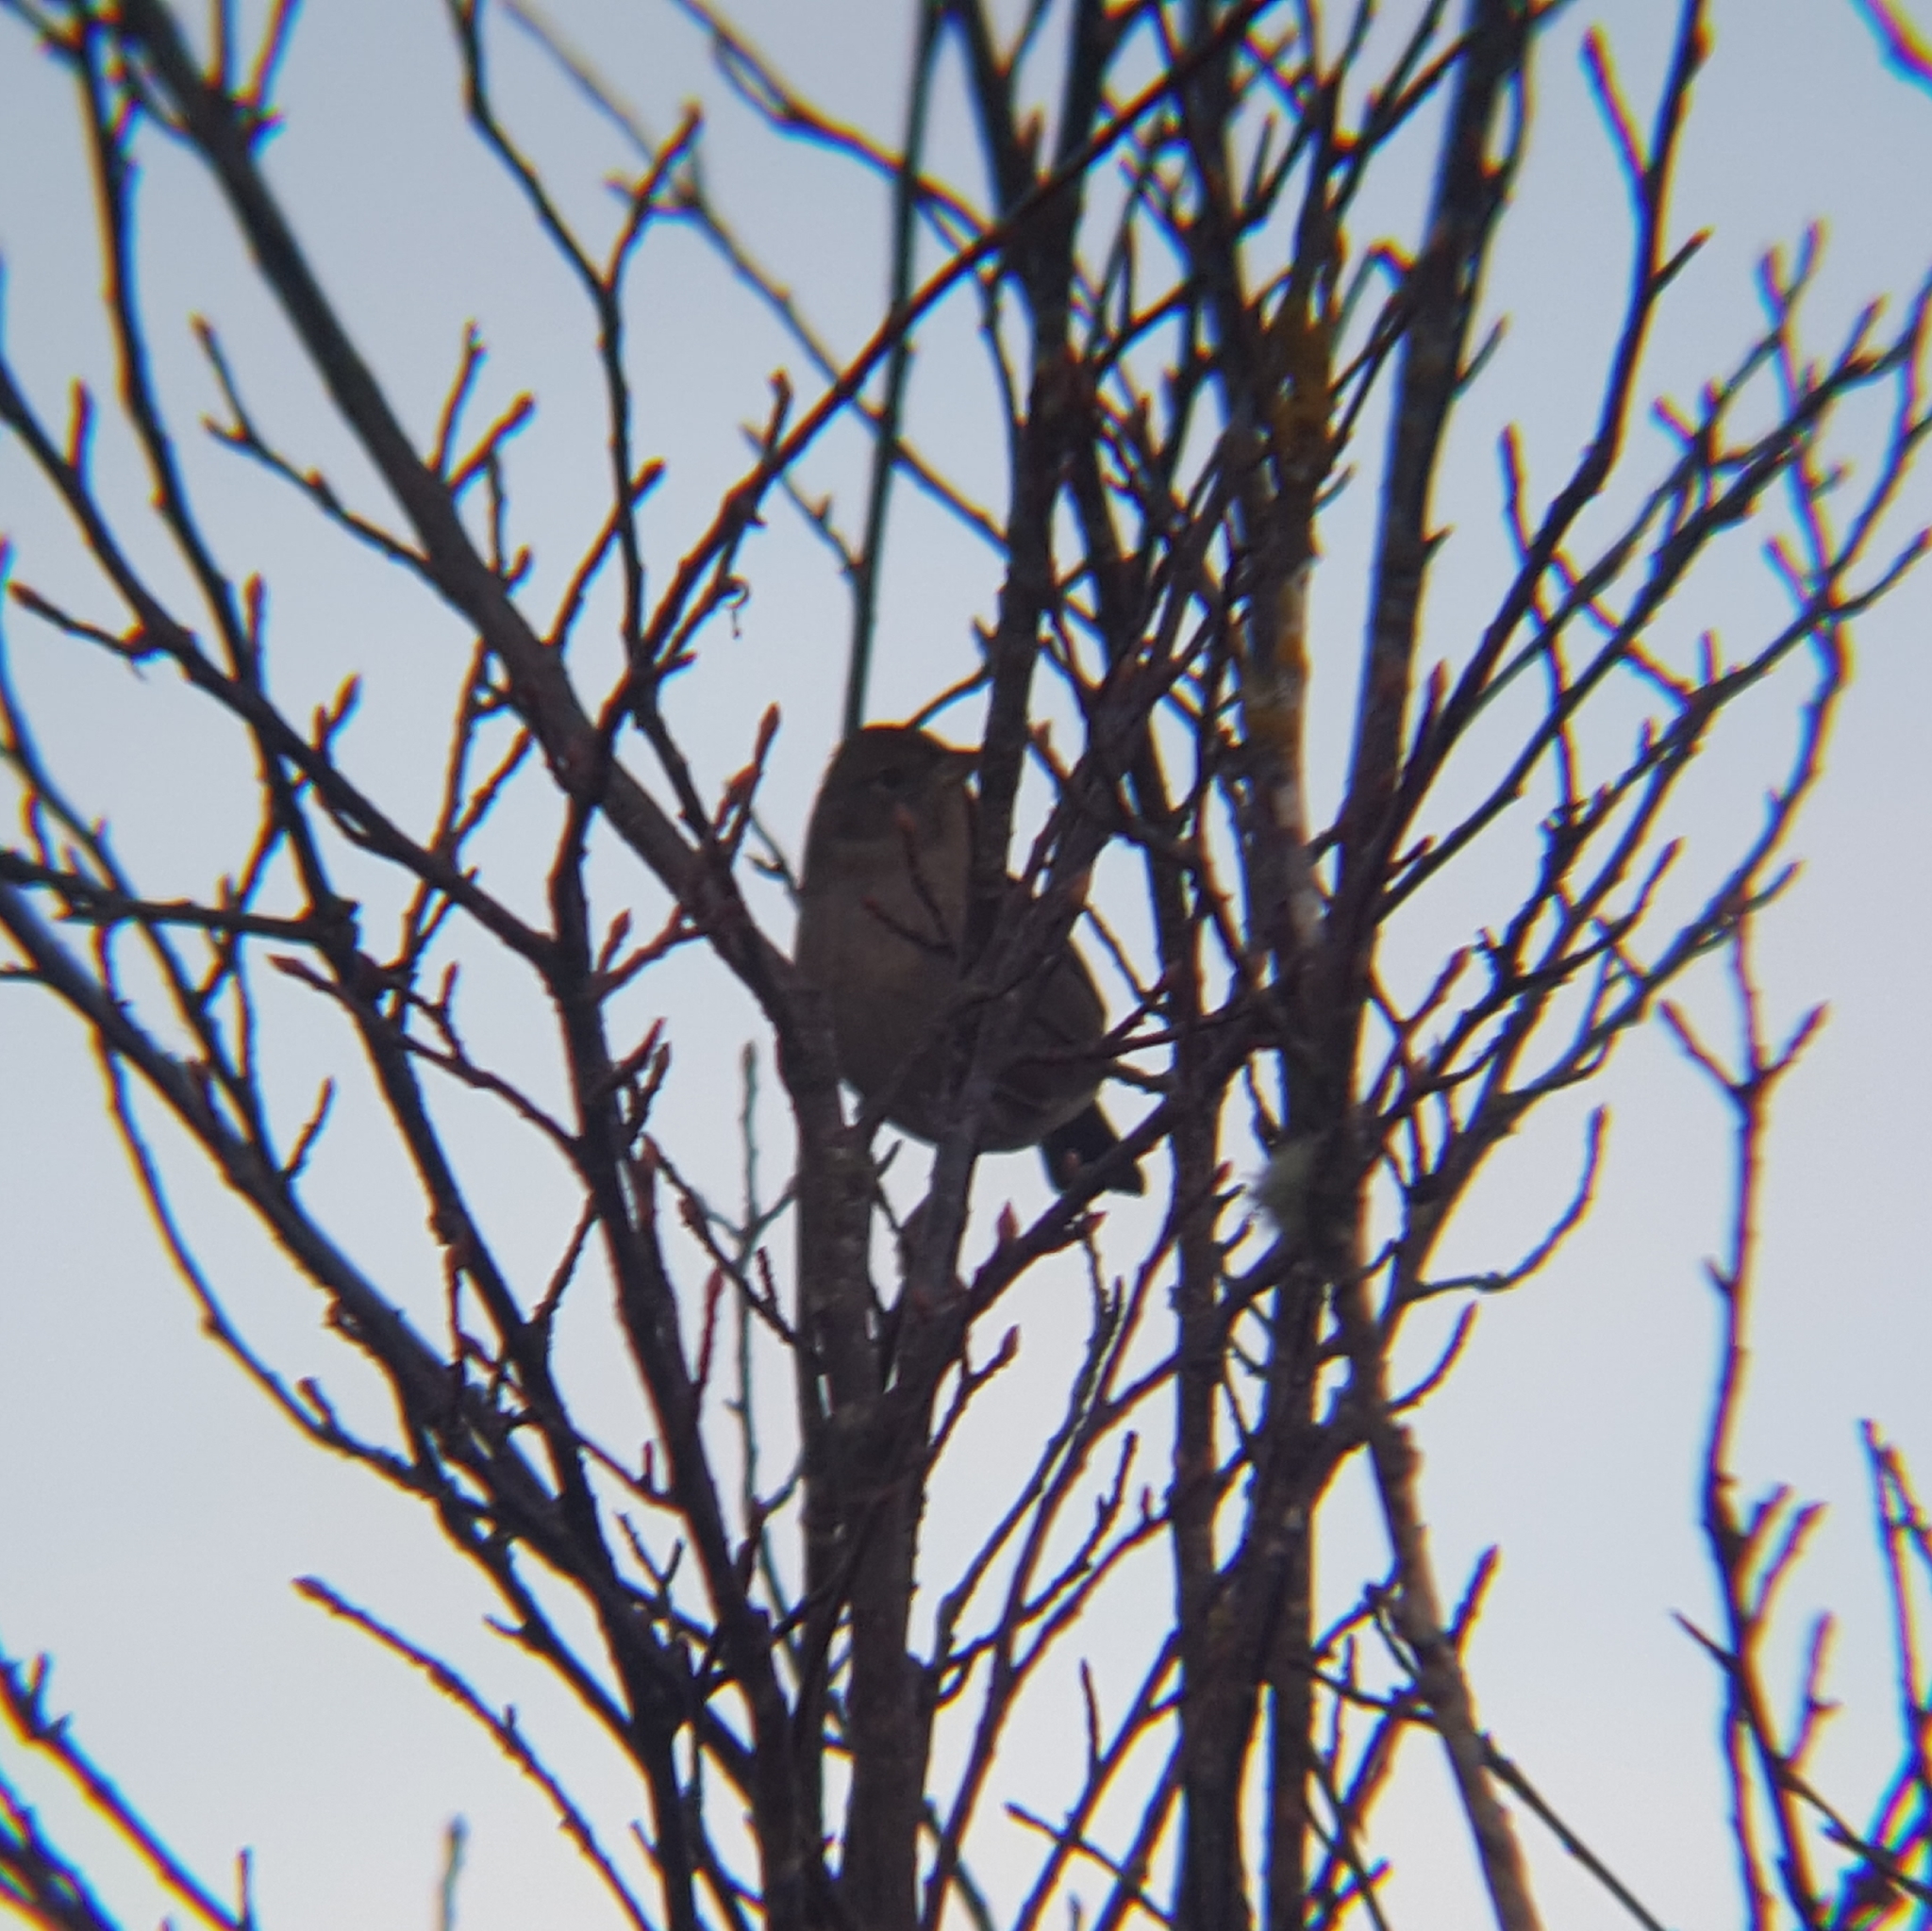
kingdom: Animalia
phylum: Chordata
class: Aves
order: Passeriformes
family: Passerellidae
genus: Zonotrichia
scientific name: Zonotrichia atricapilla
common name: Golden-crowned sparrow
